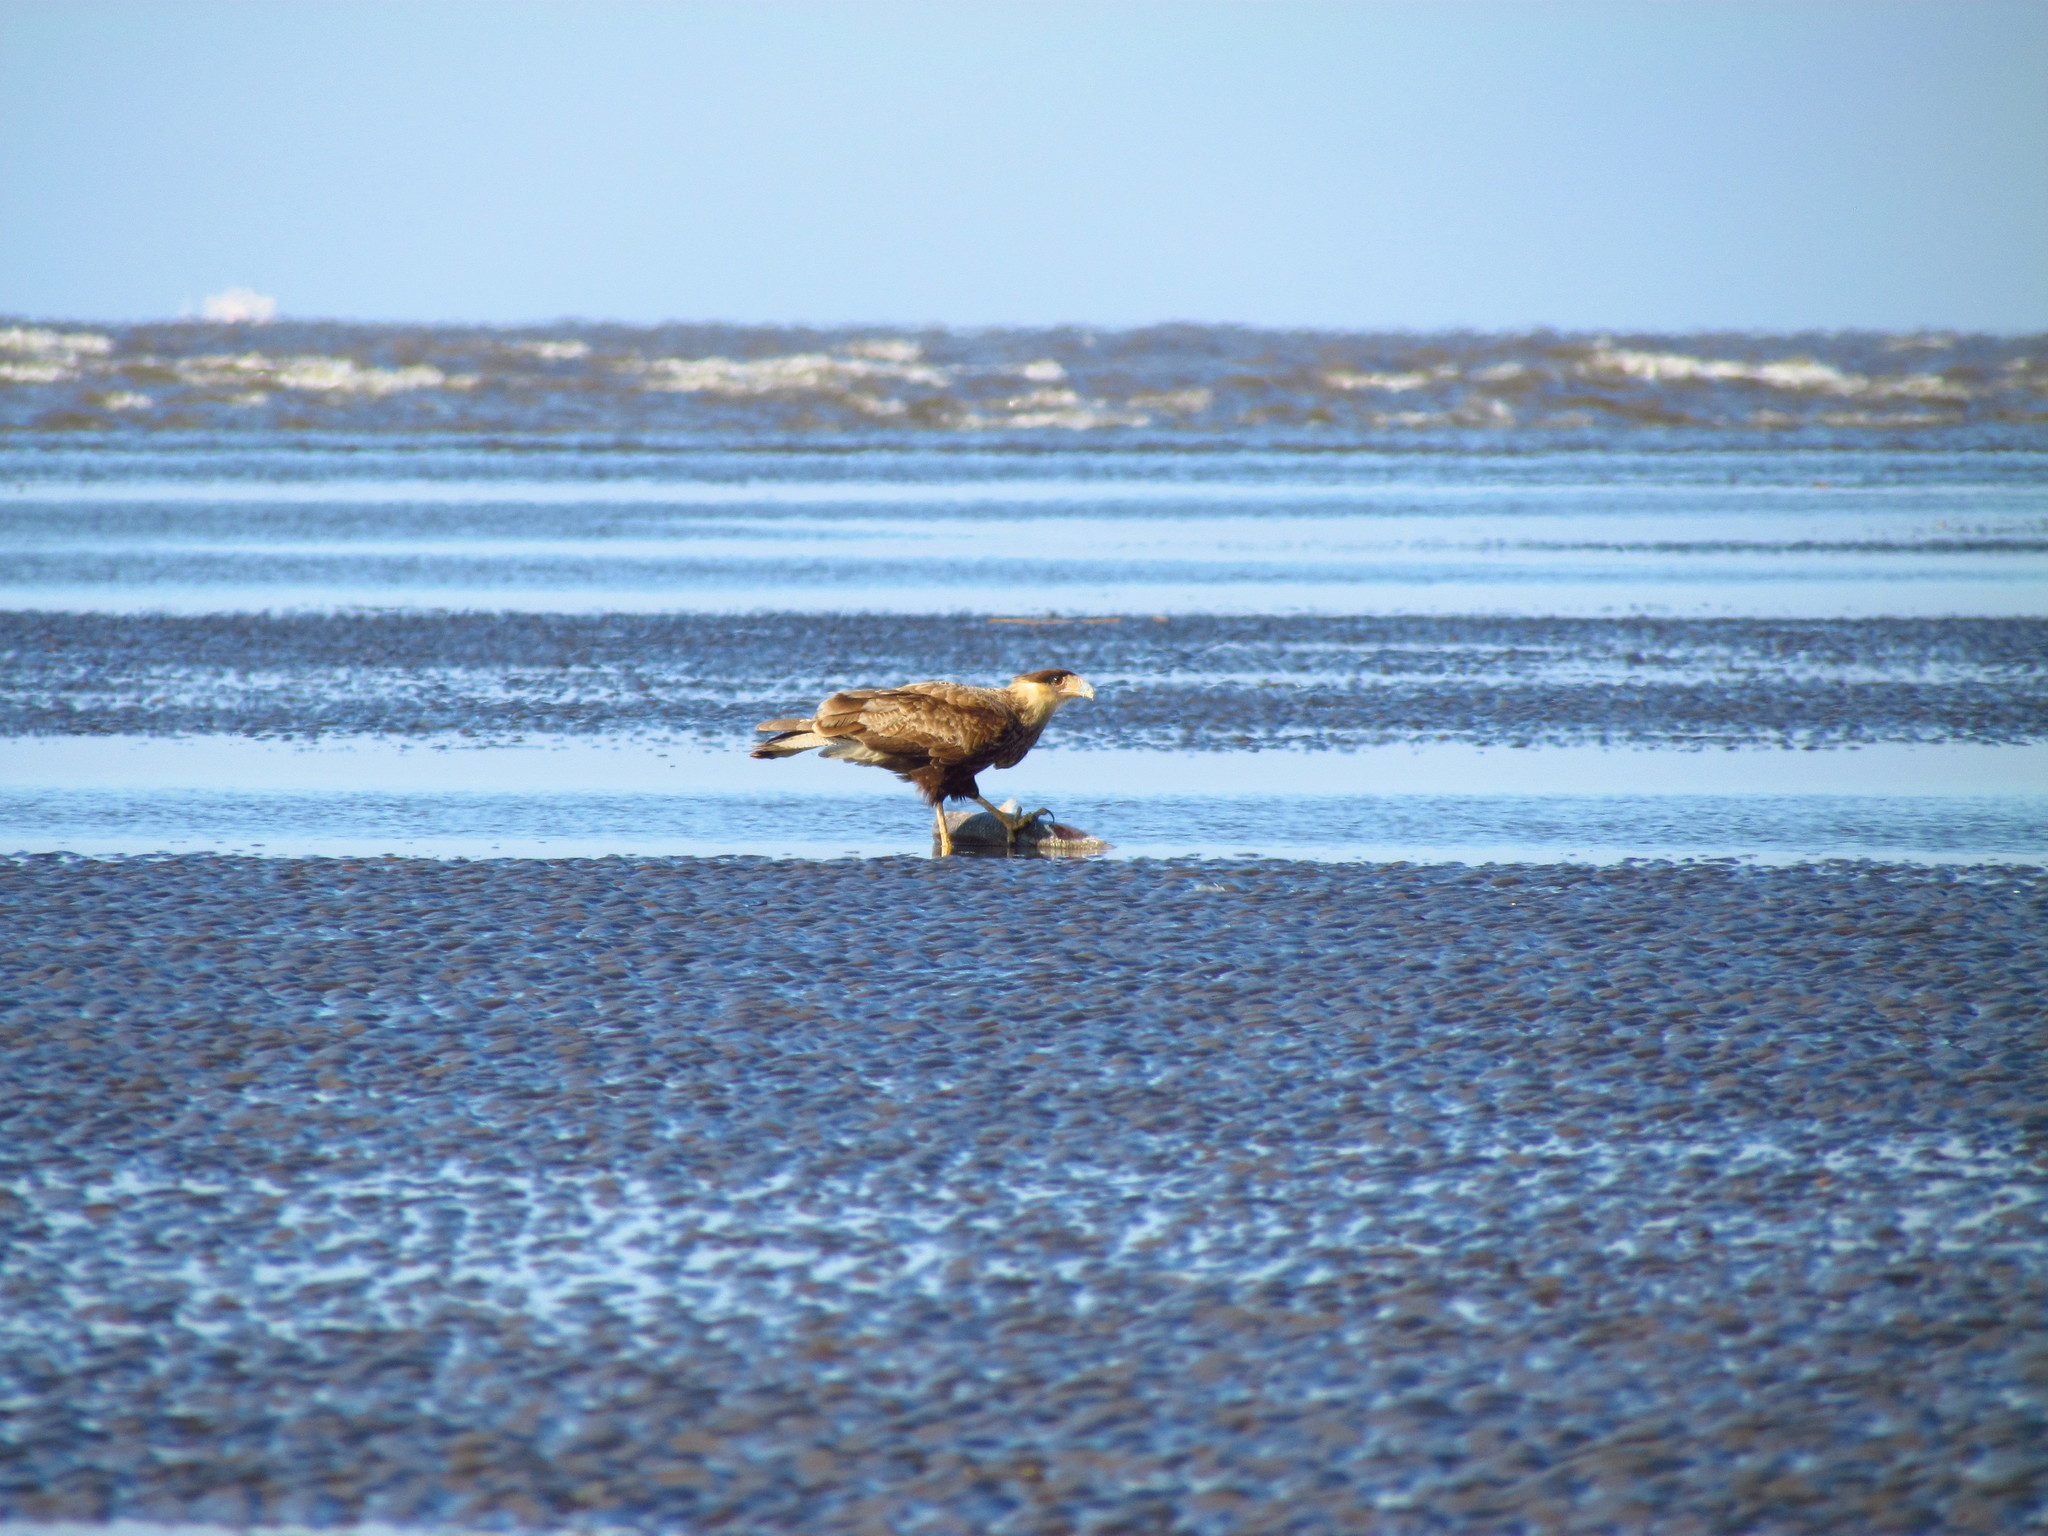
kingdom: Animalia
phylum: Chordata
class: Aves
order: Falconiformes
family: Falconidae
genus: Caracara
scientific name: Caracara plancus
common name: Southern caracara
